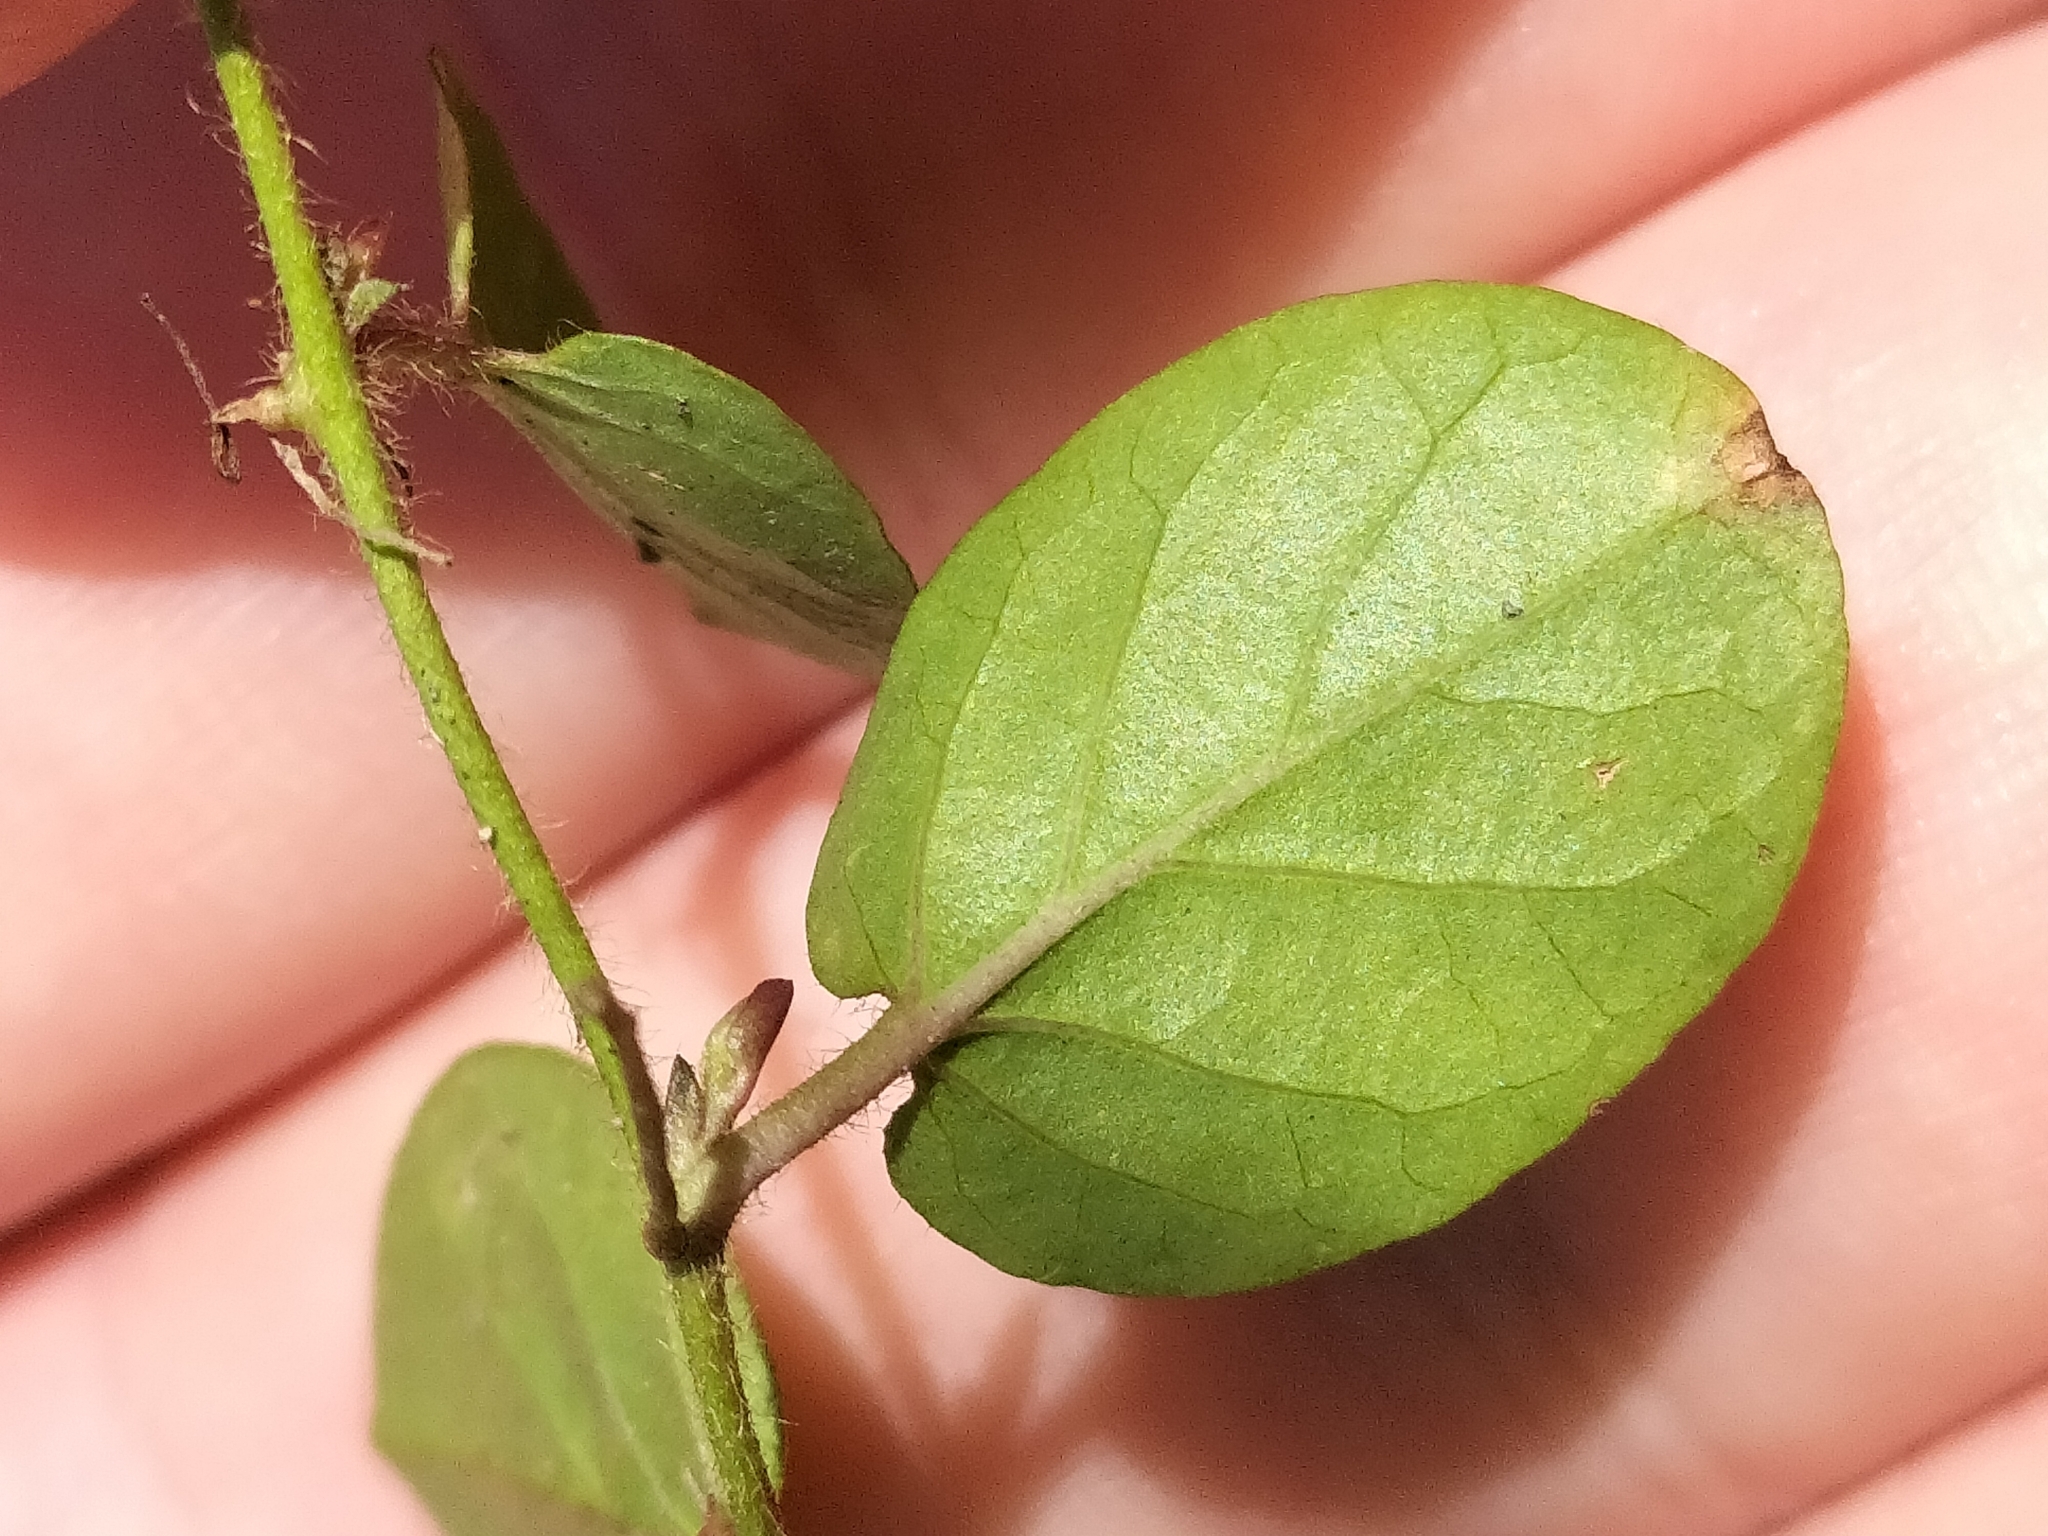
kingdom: Plantae
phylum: Tracheophyta
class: Magnoliopsida
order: Solanales
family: Convolvulaceae
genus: Evolvulus
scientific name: Evolvulus nummularius
